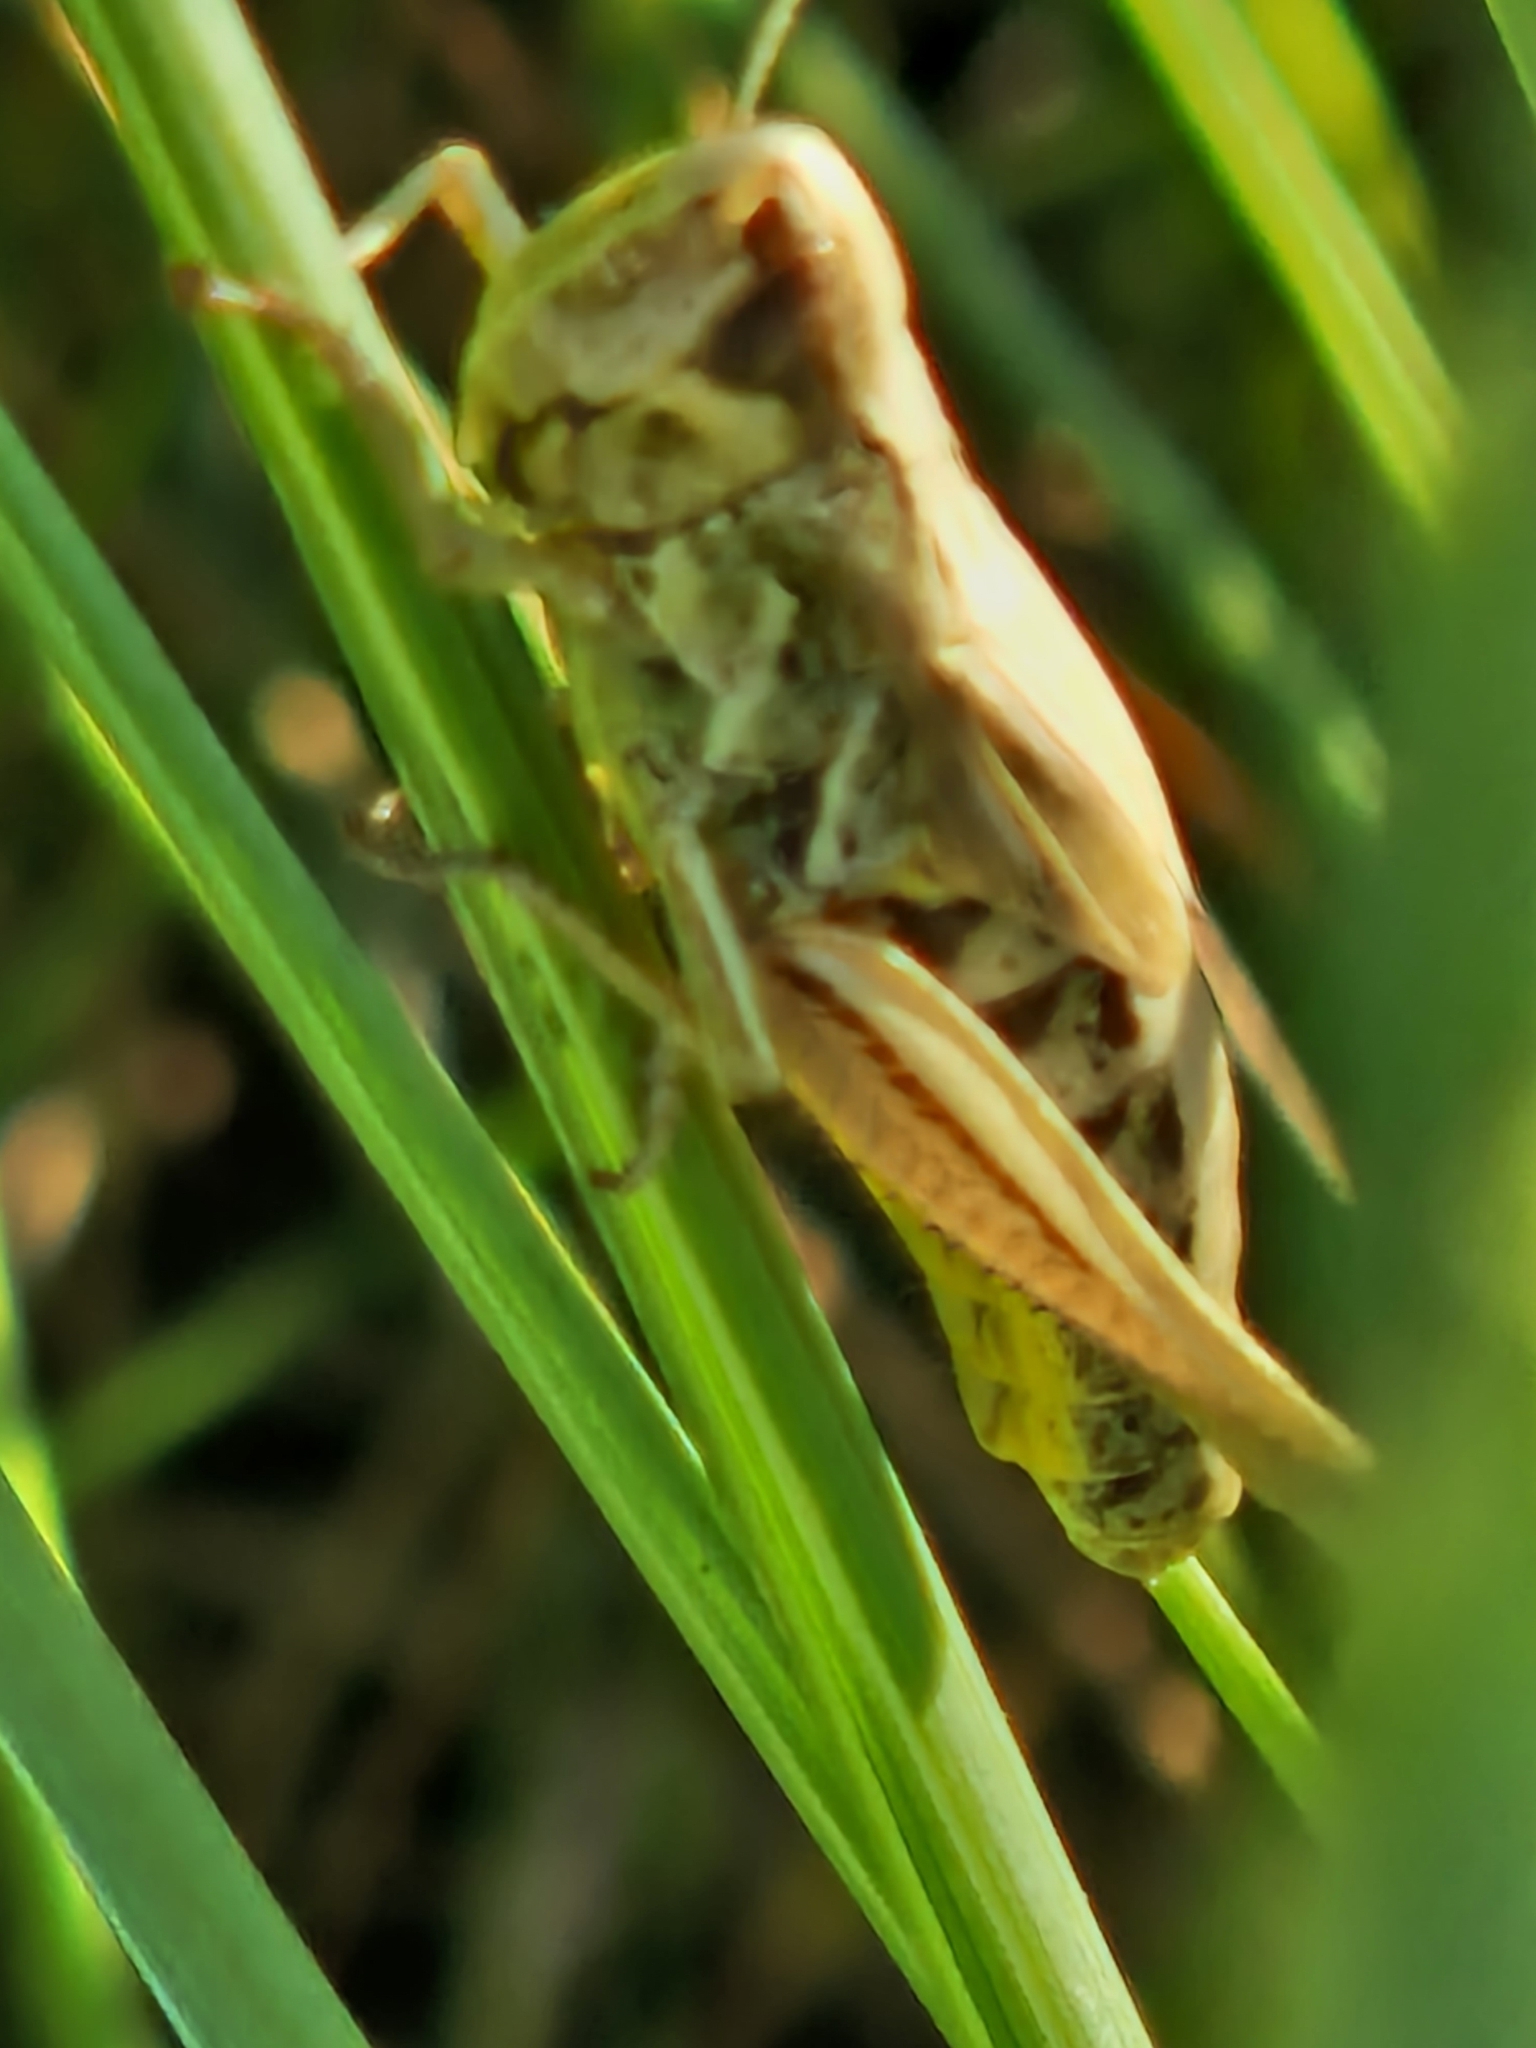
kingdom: Animalia
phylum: Arthropoda
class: Insecta
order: Orthoptera
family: Acrididae
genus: Pseudochorthippus
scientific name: Pseudochorthippus parallelus
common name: Meadow grasshopper
